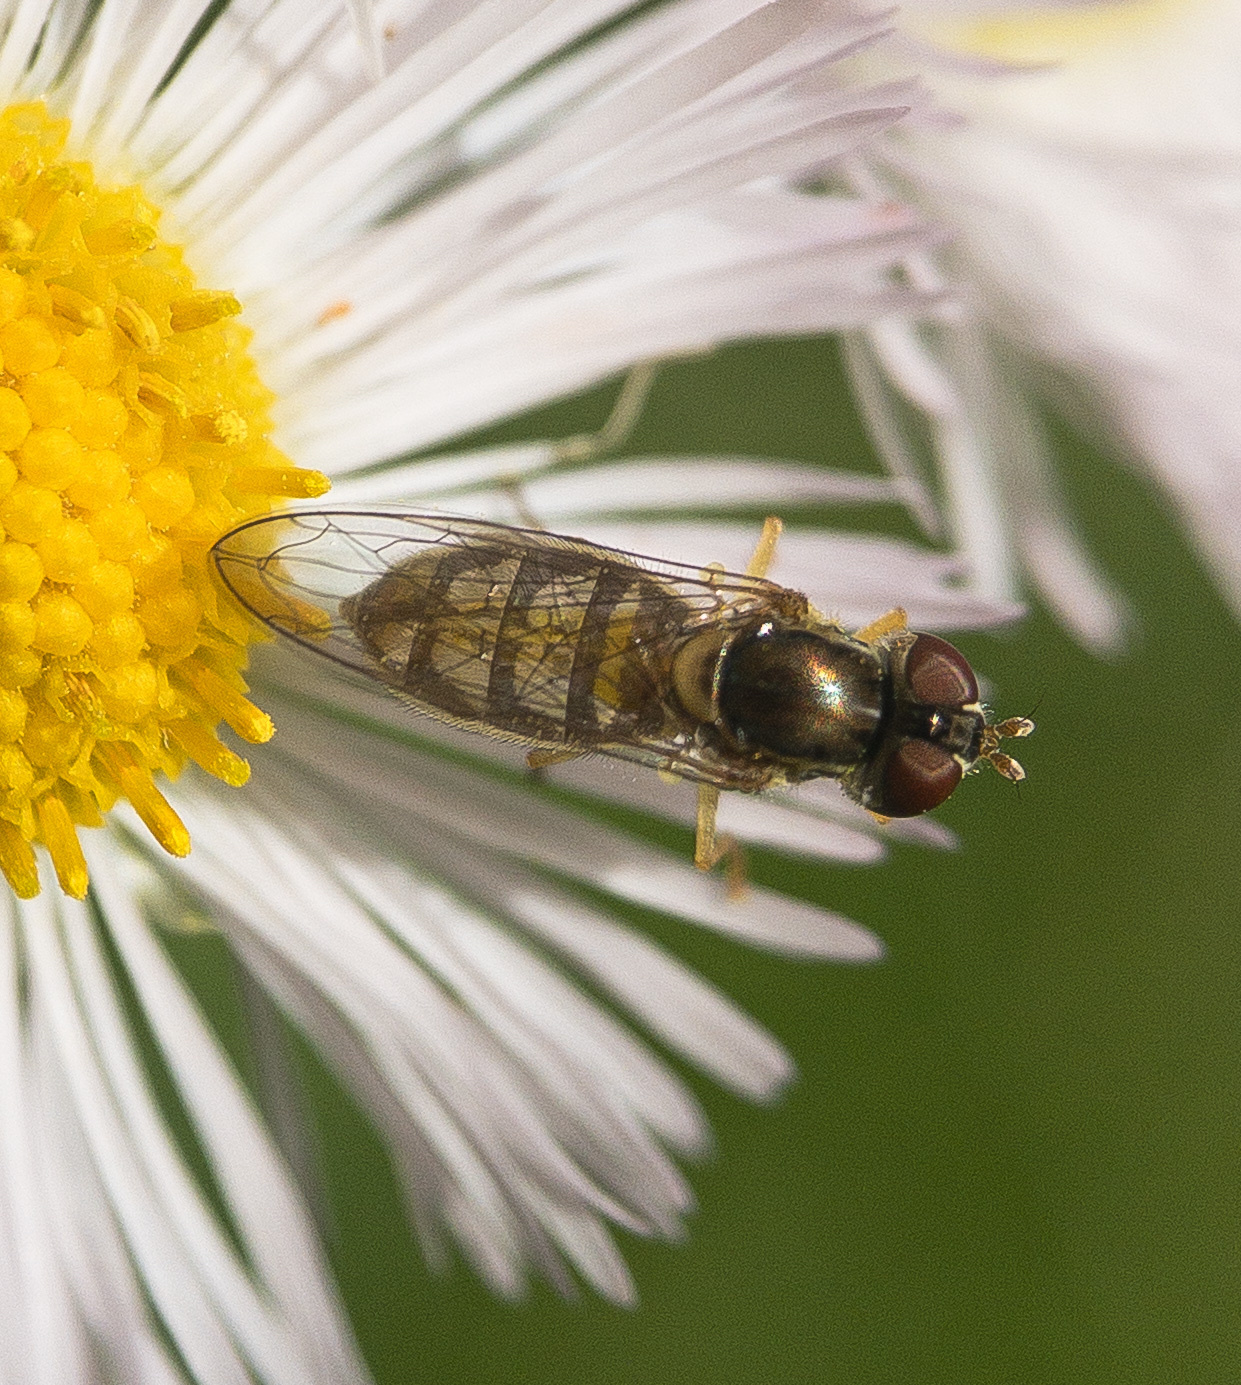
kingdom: Animalia
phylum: Arthropoda
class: Insecta
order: Diptera
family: Syrphidae
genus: Toxomerus
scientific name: Toxomerus marginatus
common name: Syrphid fly
